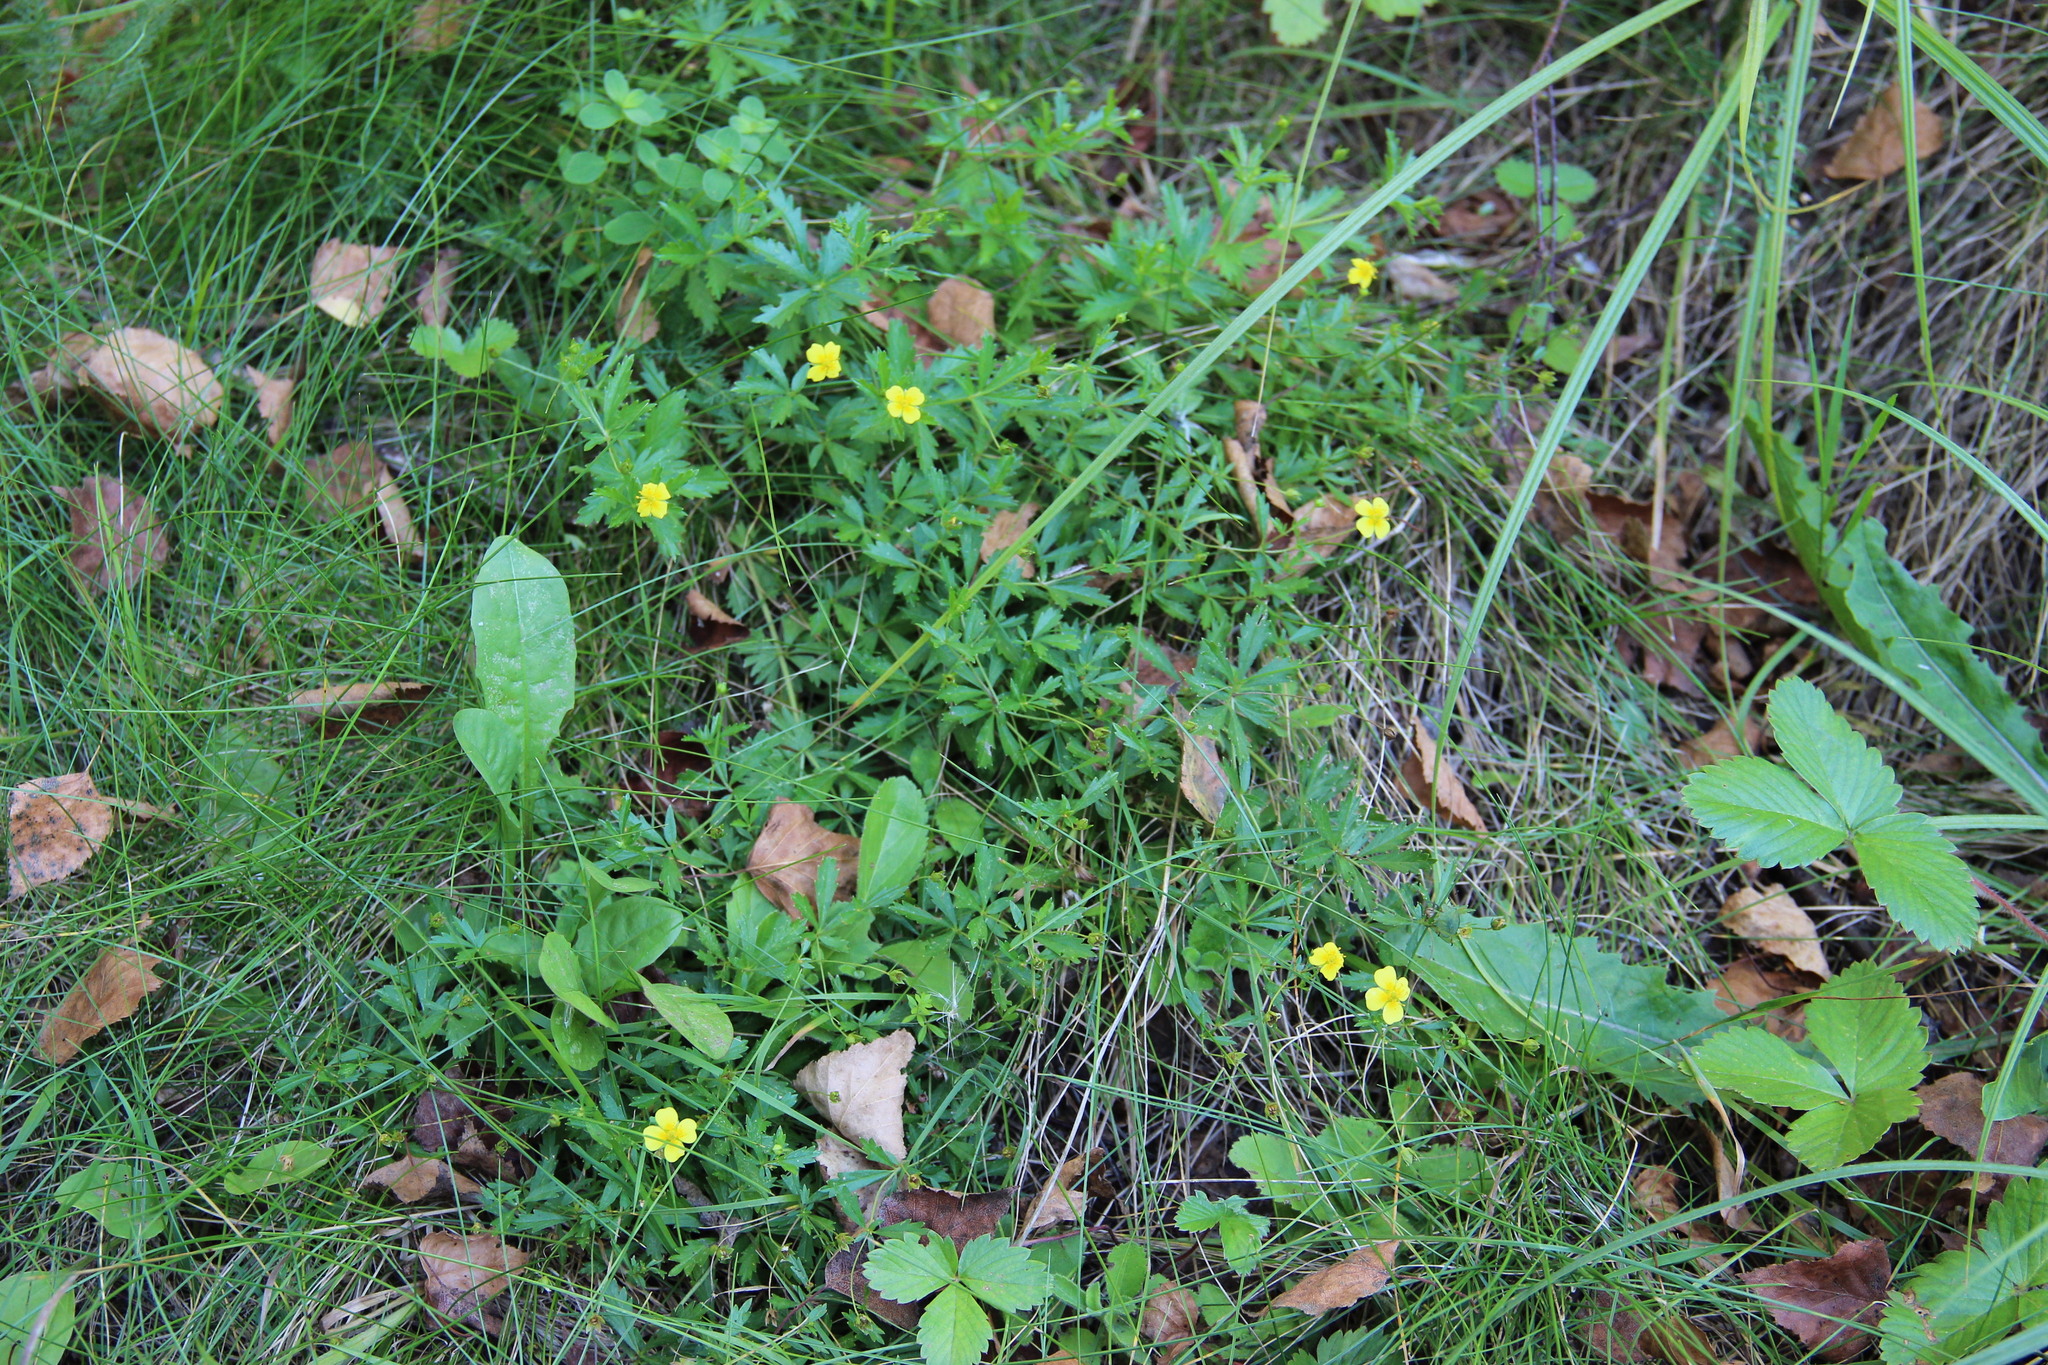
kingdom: Plantae
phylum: Tracheophyta
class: Magnoliopsida
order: Rosales
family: Rosaceae
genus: Potentilla
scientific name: Potentilla erecta
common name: Tormentil
